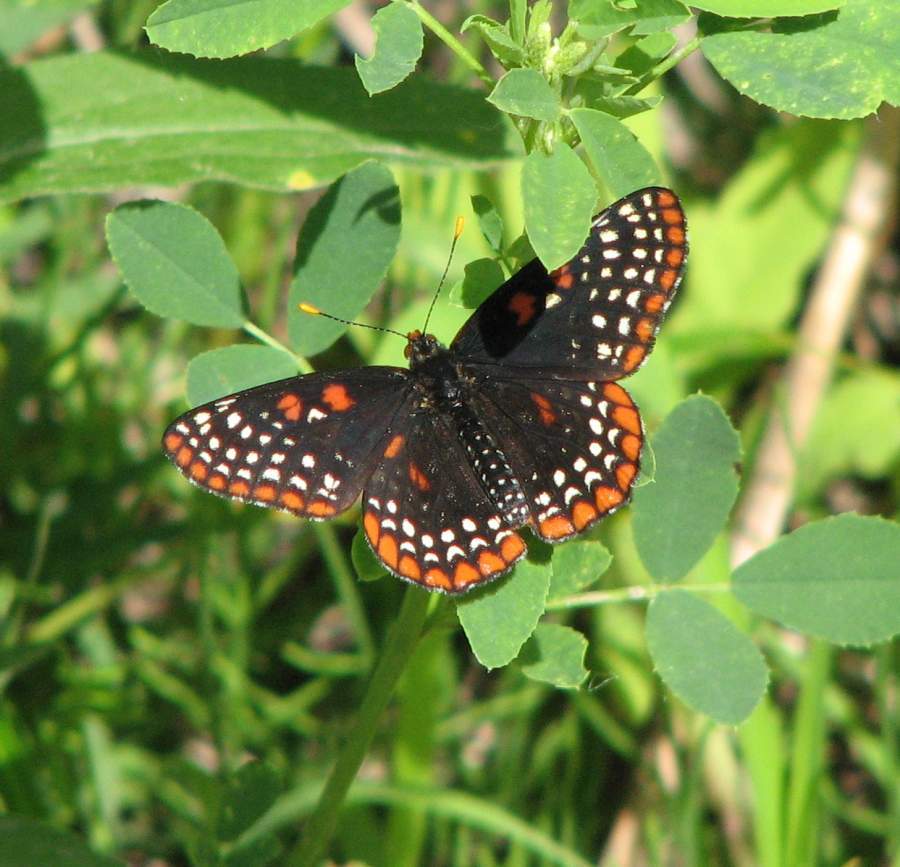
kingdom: Animalia
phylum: Arthropoda
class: Insecta
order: Lepidoptera
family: Nymphalidae
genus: Euphydryas
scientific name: Euphydryas phaeton
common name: Baltimore checkerspot
